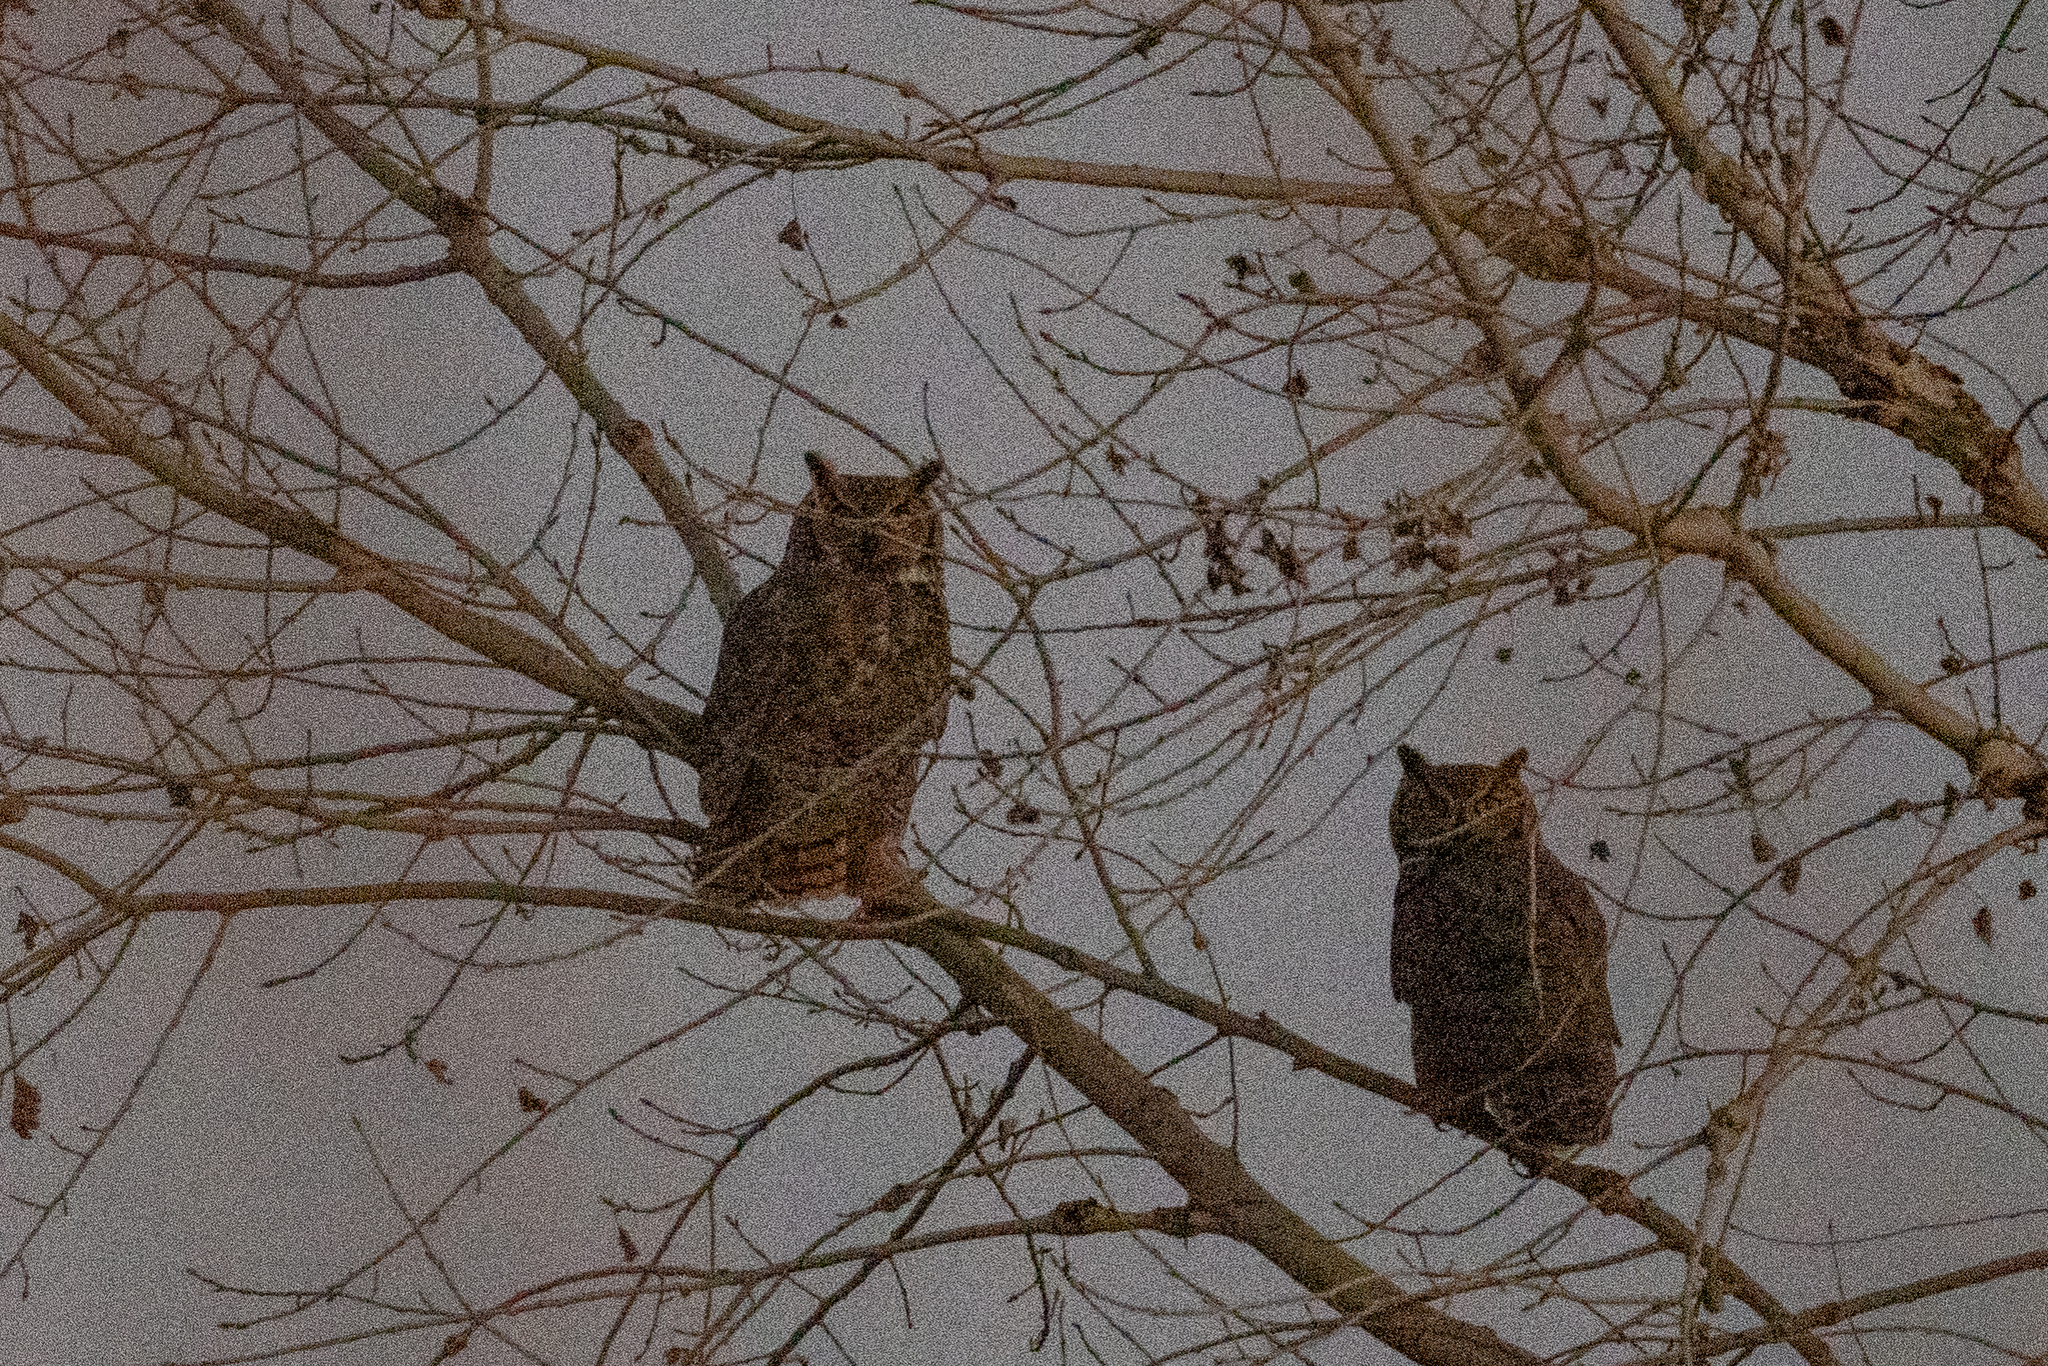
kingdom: Animalia
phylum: Chordata
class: Aves
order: Strigiformes
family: Strigidae
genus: Bubo
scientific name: Bubo virginianus
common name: Great horned owl
